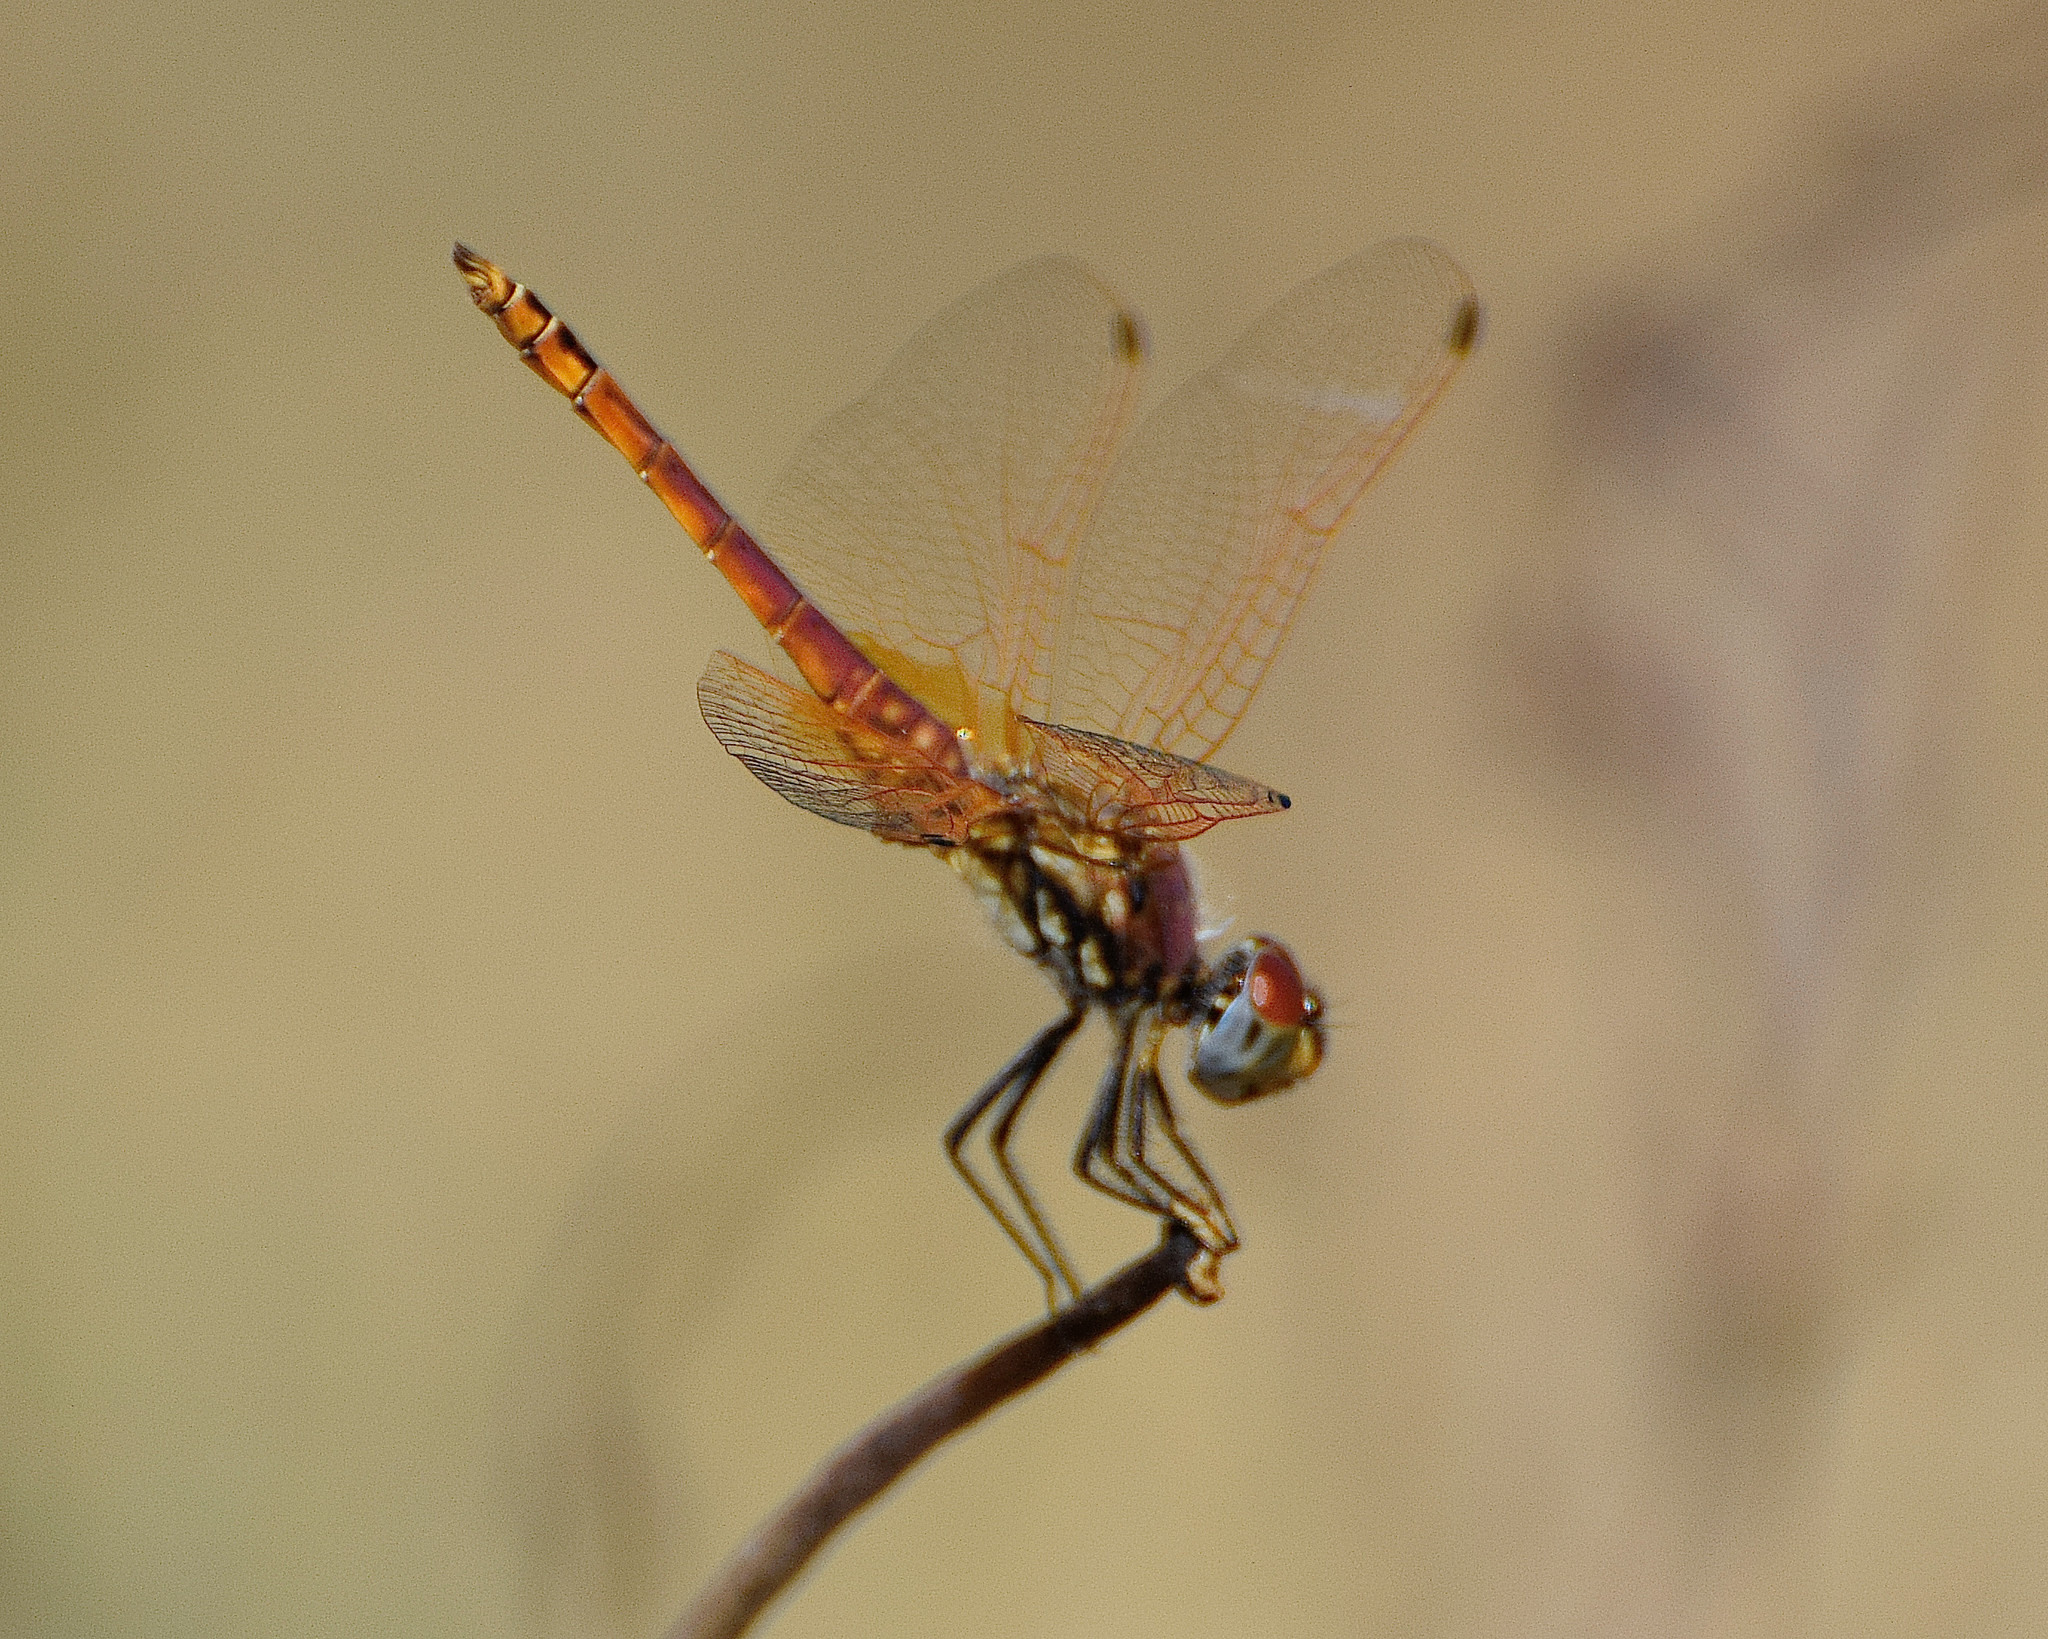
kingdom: Animalia
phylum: Arthropoda
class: Insecta
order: Odonata
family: Libellulidae
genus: Trithemis
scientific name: Trithemis annulata
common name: Violet dropwing
